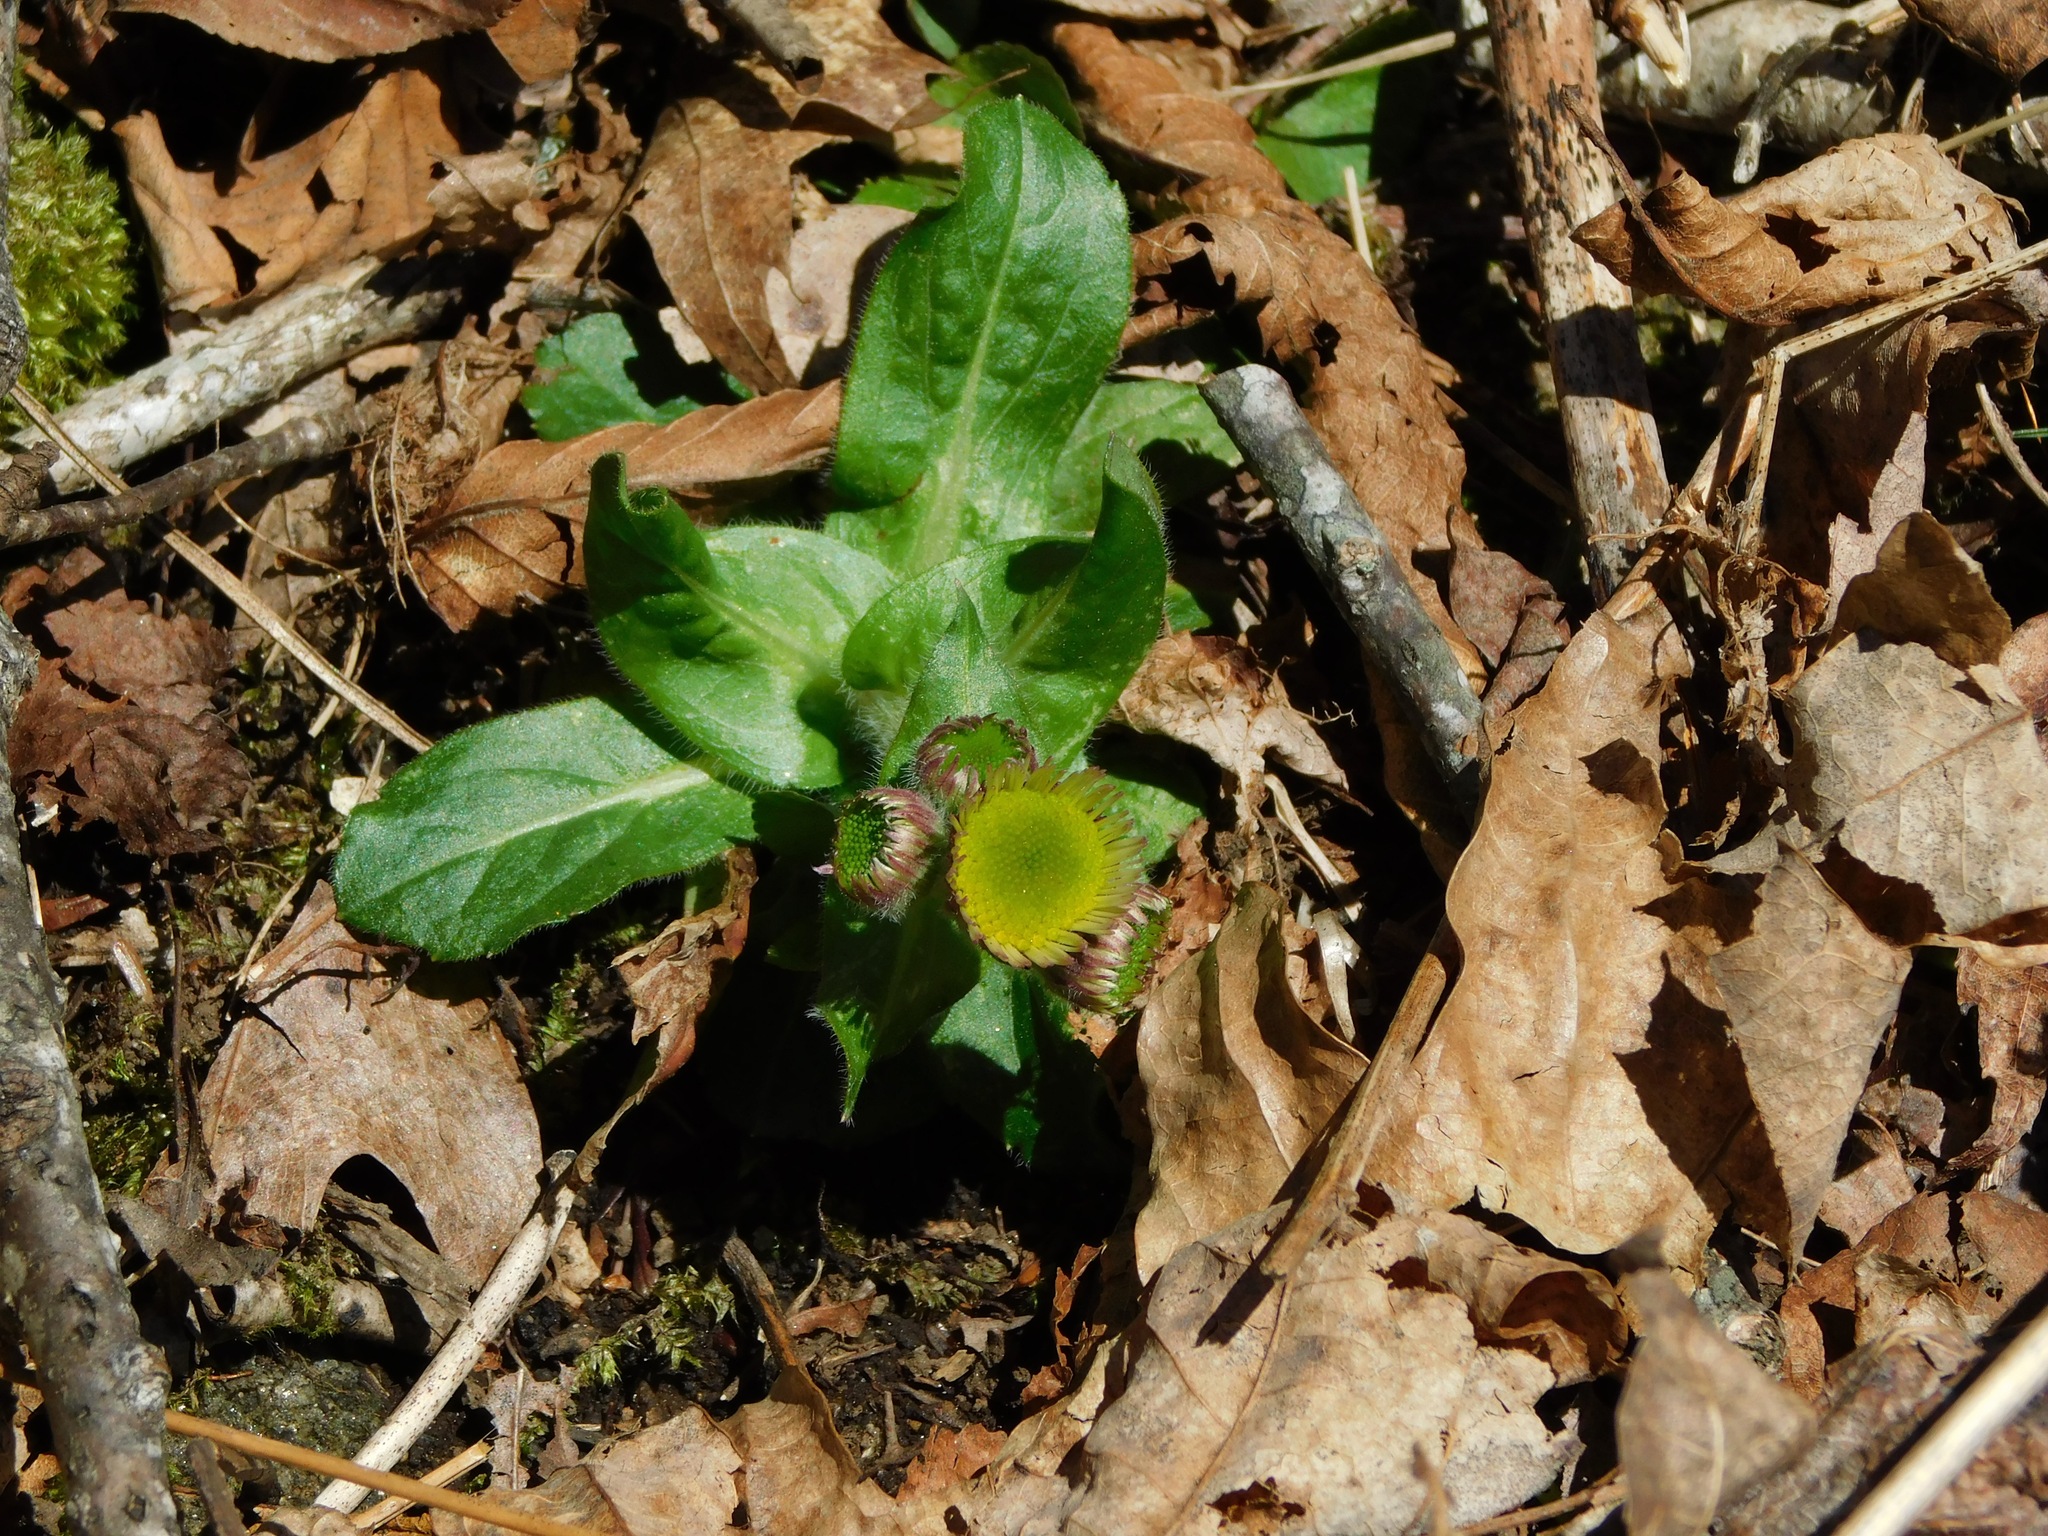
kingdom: Plantae
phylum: Tracheophyta
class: Magnoliopsida
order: Asterales
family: Asteraceae
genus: Erigeron
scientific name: Erigeron pulchellus
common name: Hairy fleabane
